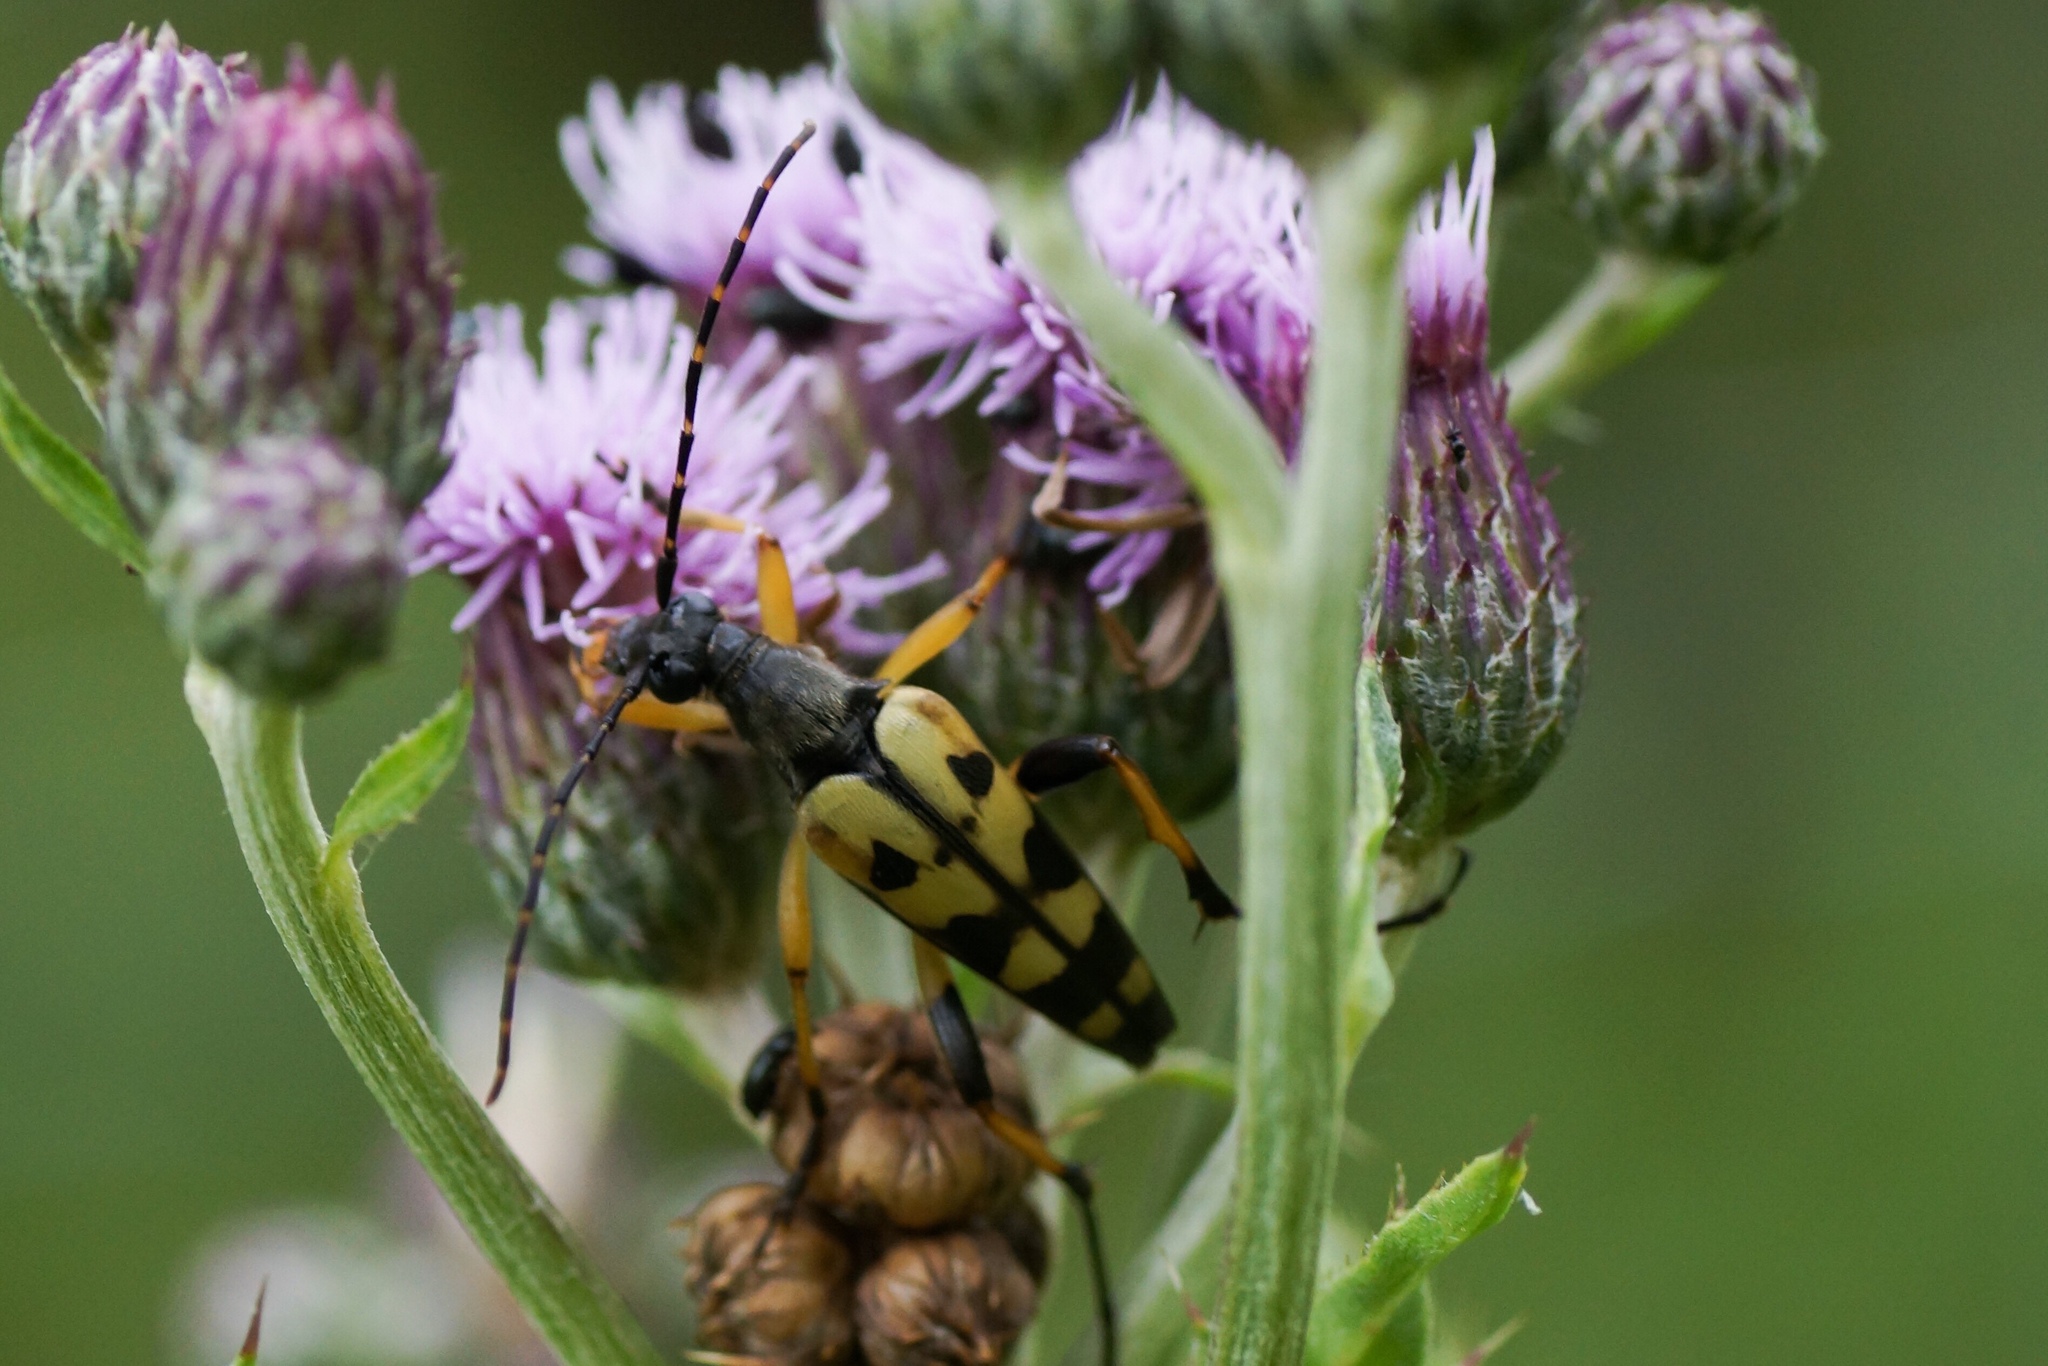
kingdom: Animalia
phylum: Arthropoda
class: Insecta
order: Coleoptera
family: Cerambycidae
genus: Rutpela
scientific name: Rutpela maculata
